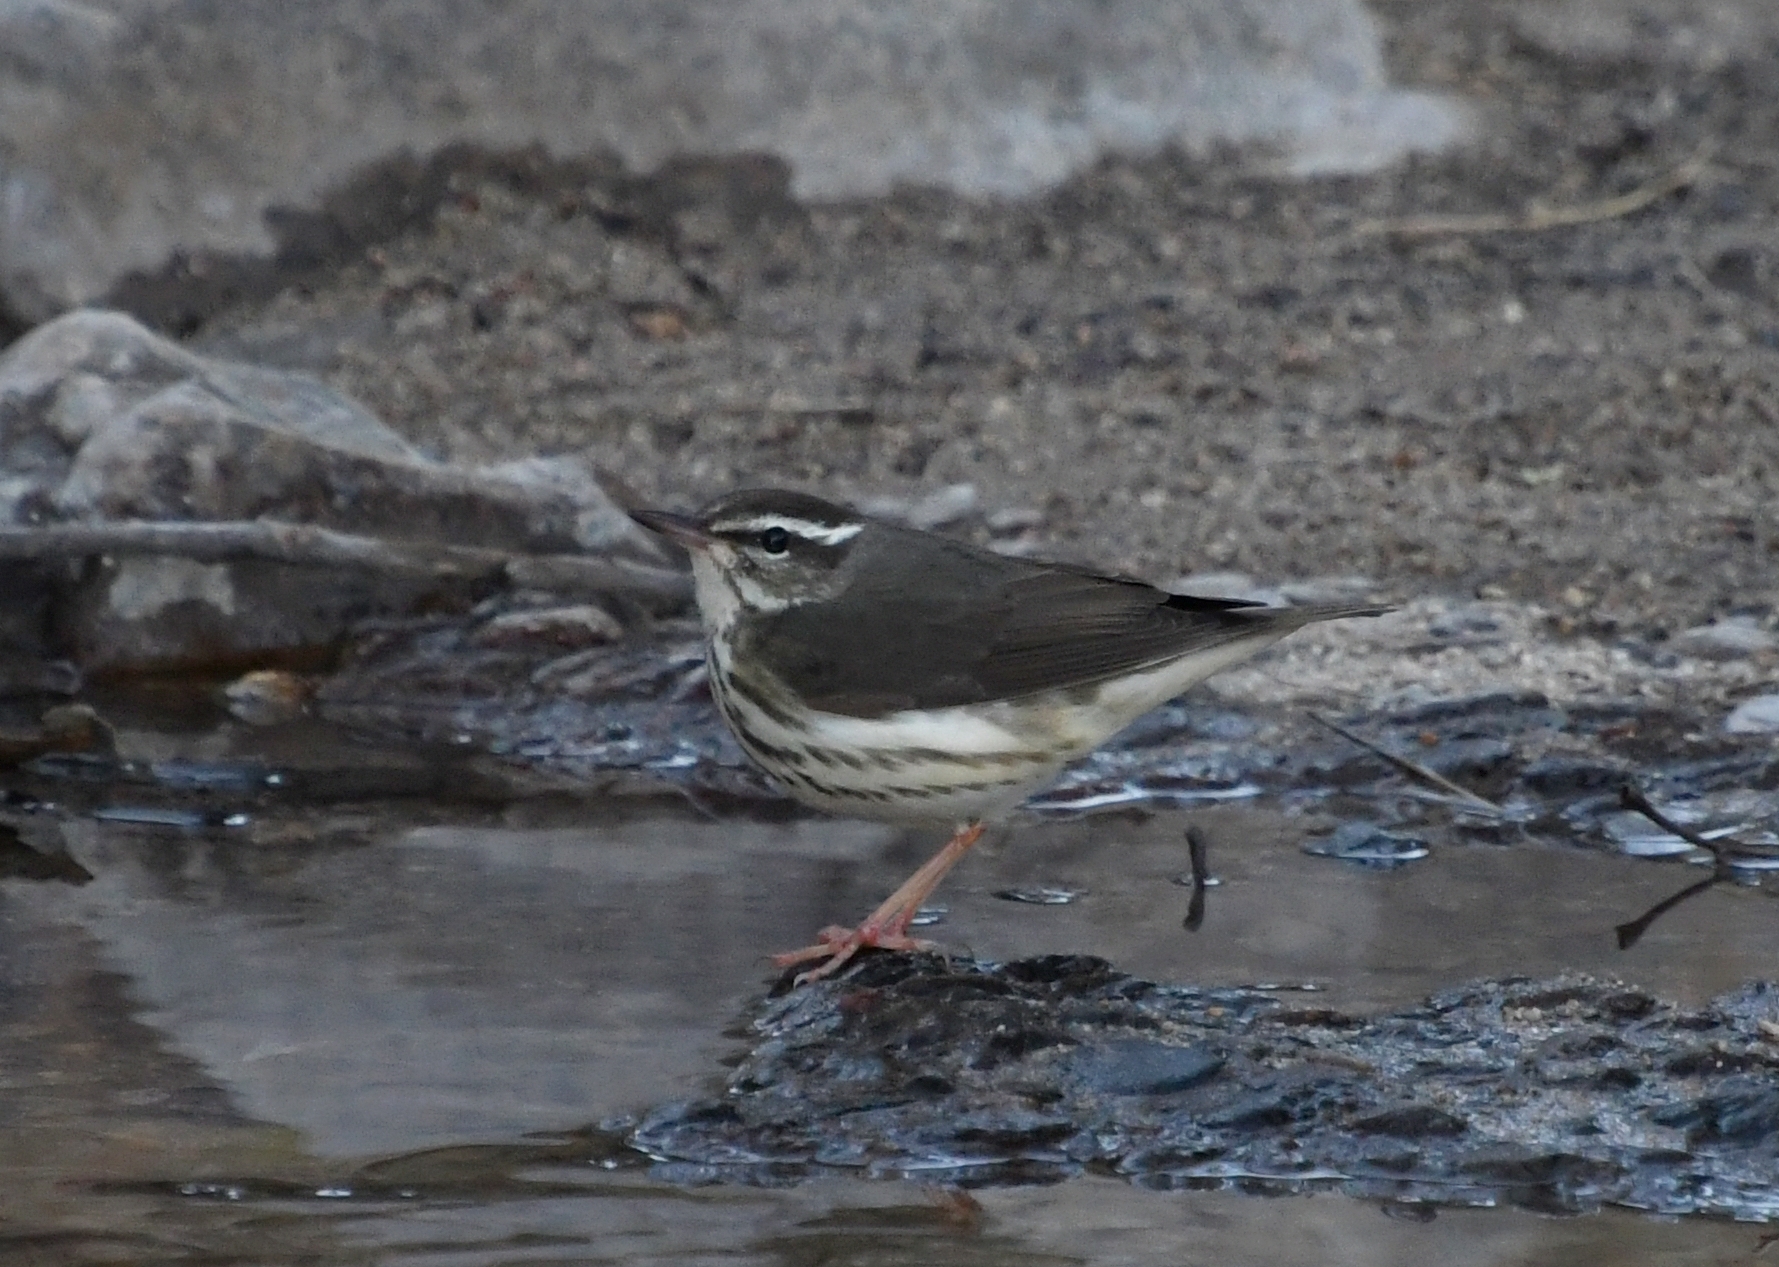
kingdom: Animalia
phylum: Chordata
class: Aves
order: Passeriformes
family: Parulidae
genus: Parkesia
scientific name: Parkesia motacilla
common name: Louisiana waterthrush
